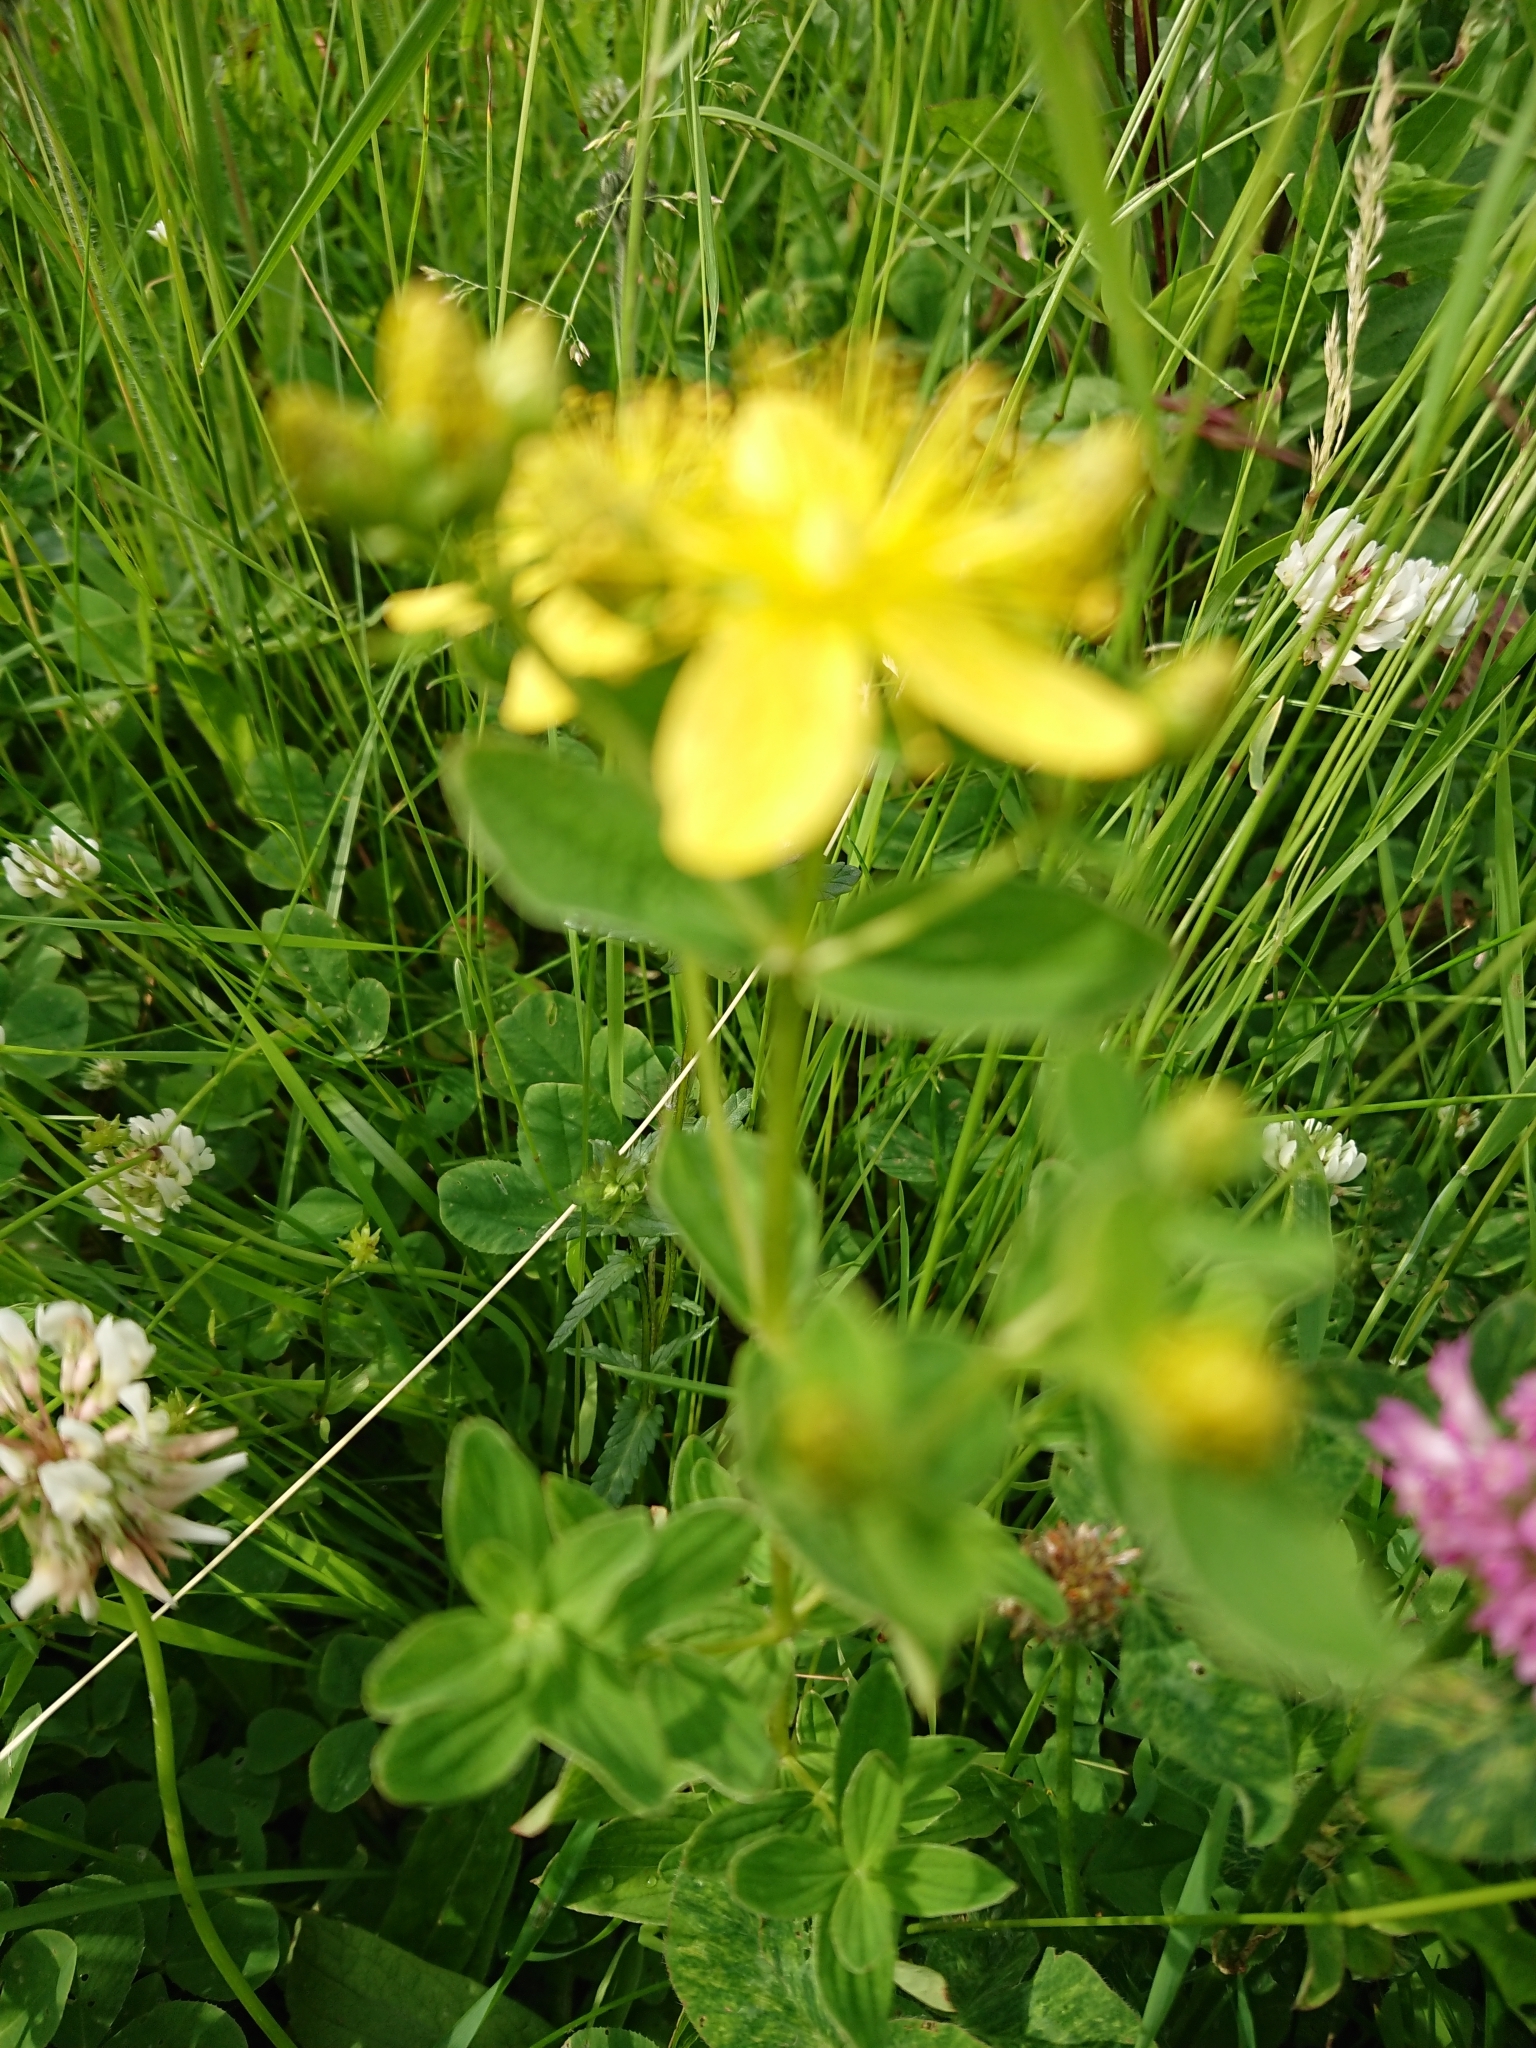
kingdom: Plantae
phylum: Tracheophyta
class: Magnoliopsida
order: Malpighiales
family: Hypericaceae
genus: Hypericum
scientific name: Hypericum maculatum
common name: Imperforate st. john's-wort
